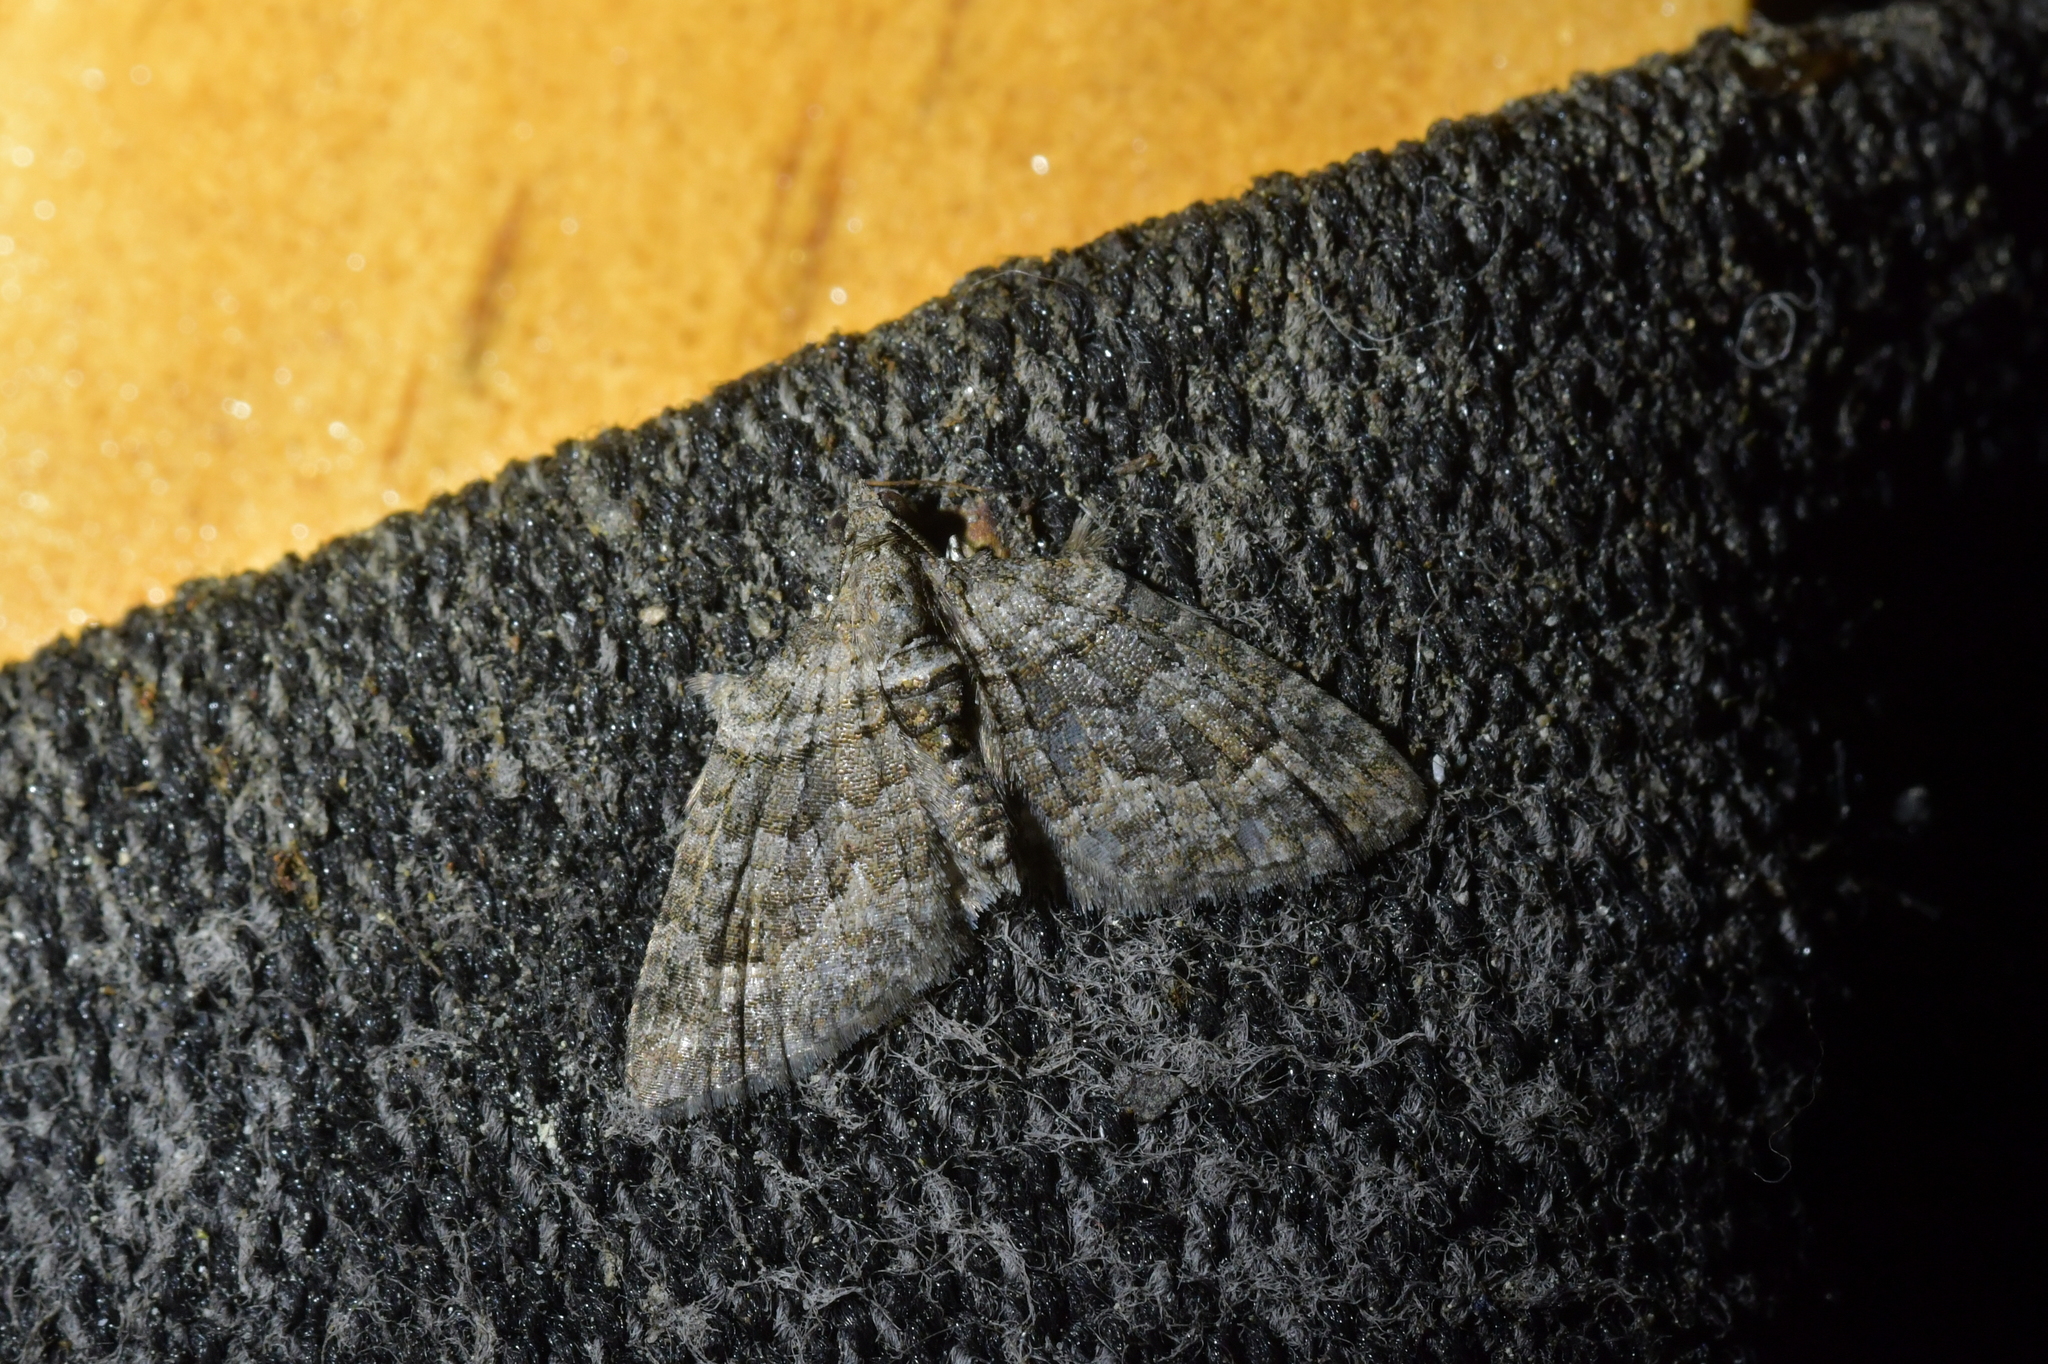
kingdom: Animalia
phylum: Arthropoda
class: Insecta
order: Lepidoptera
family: Geometridae
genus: Phrissogonus
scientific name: Phrissogonus laticostata
